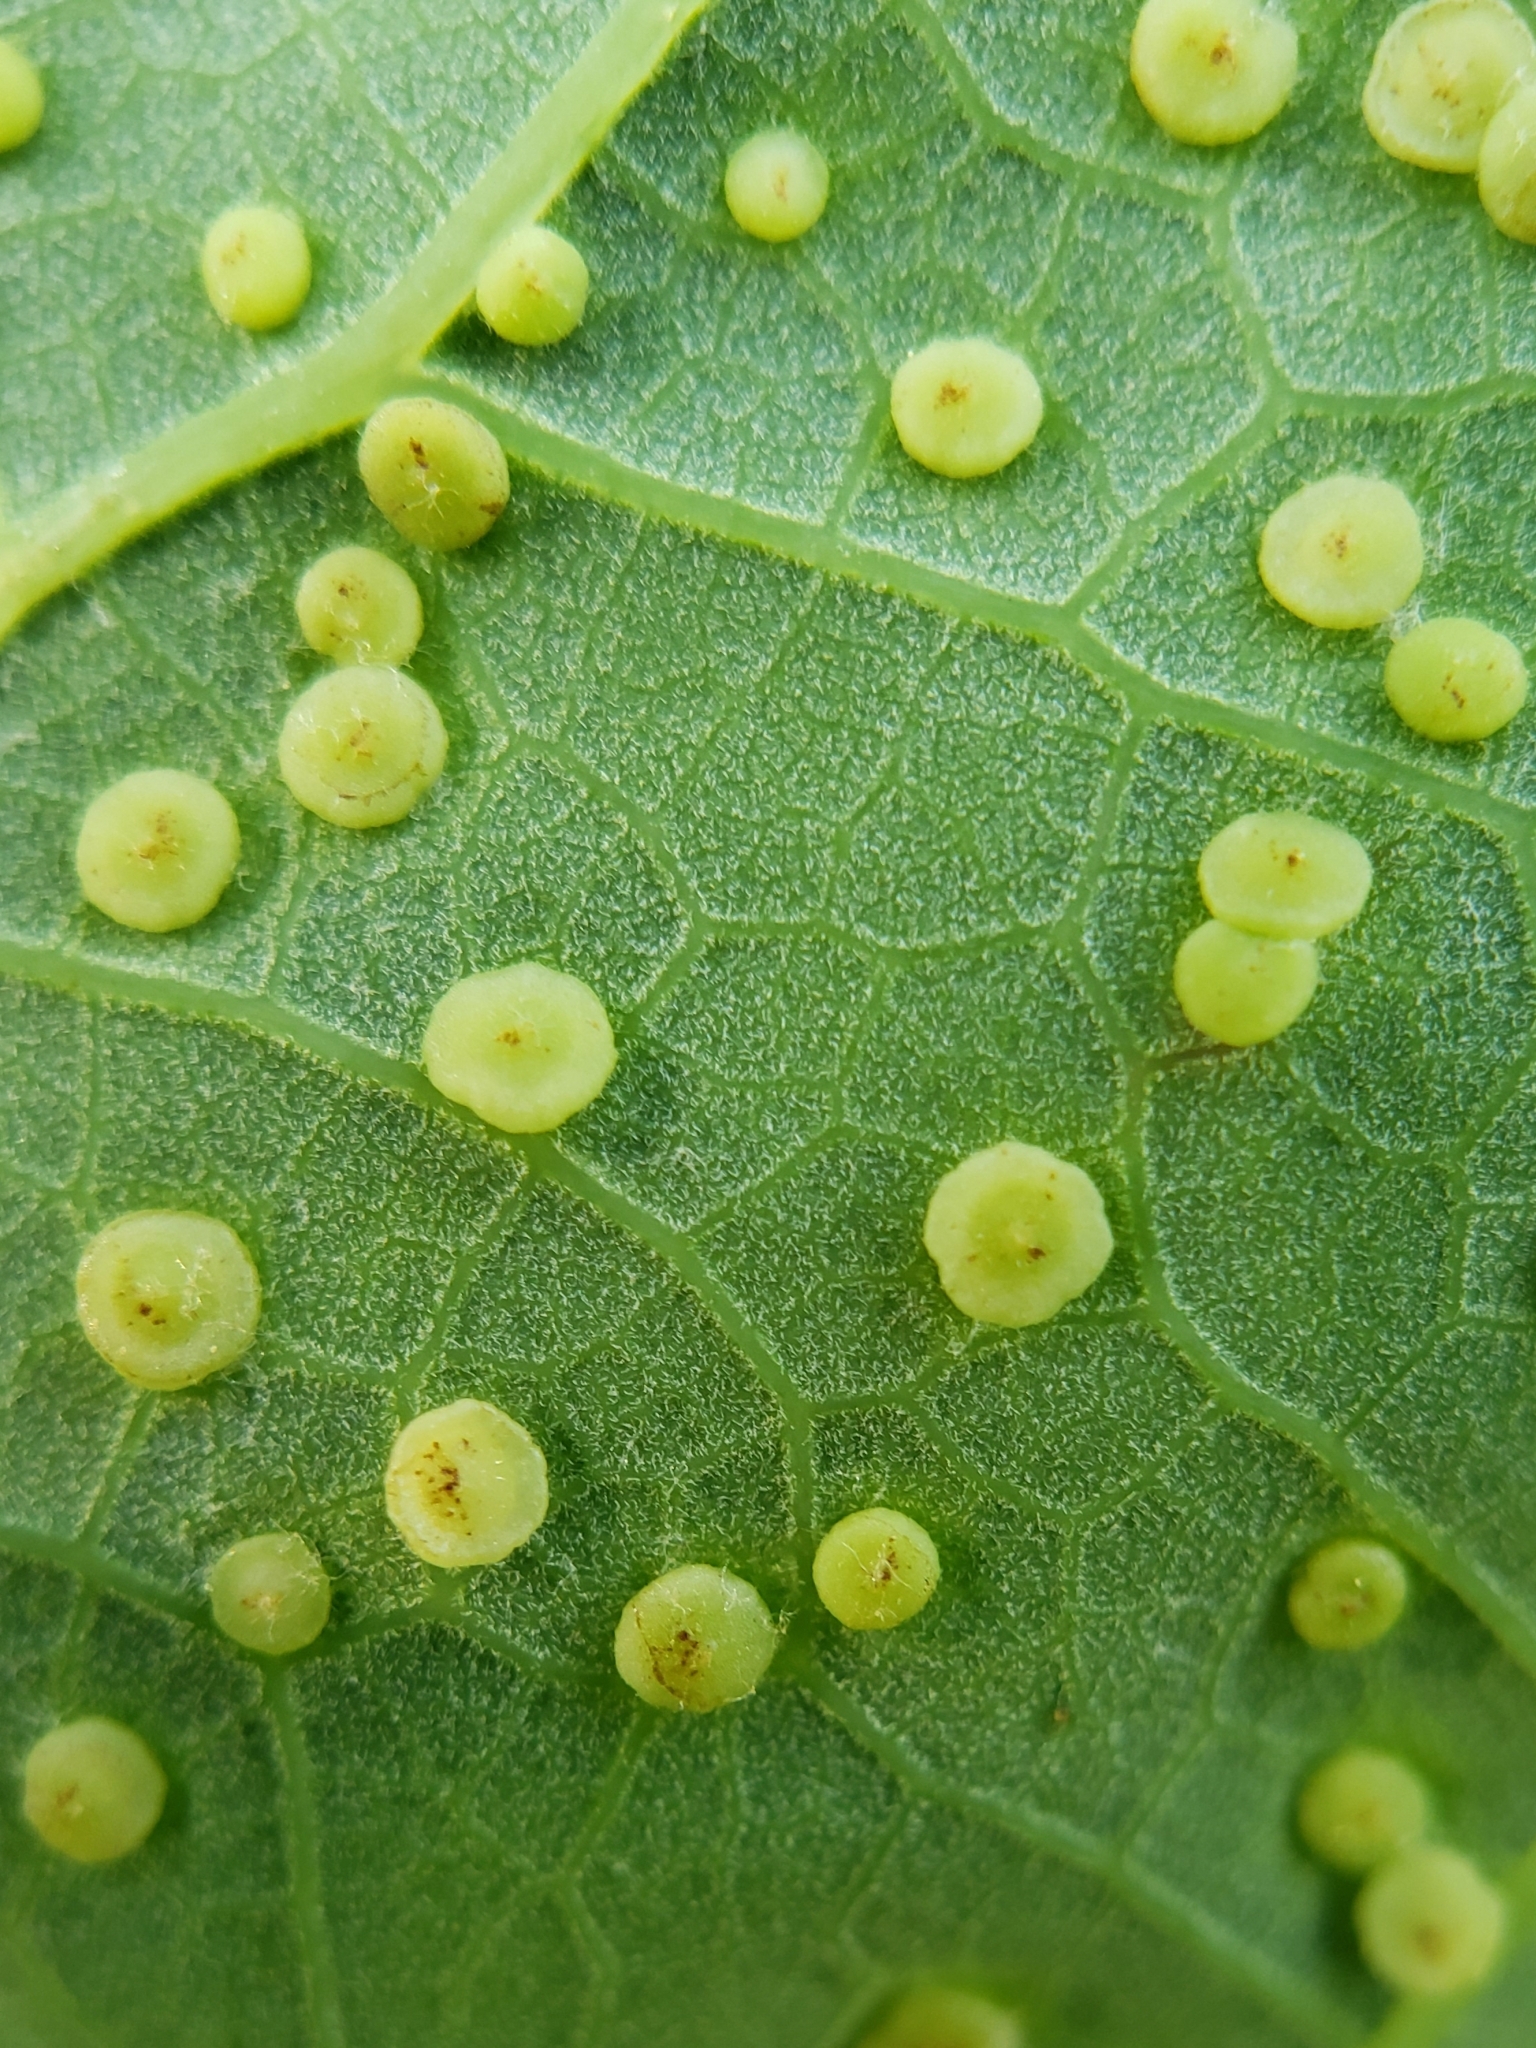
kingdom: Animalia
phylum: Arthropoda
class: Insecta
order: Hymenoptera
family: Cynipidae
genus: Neuroterus
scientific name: Neuroterus
